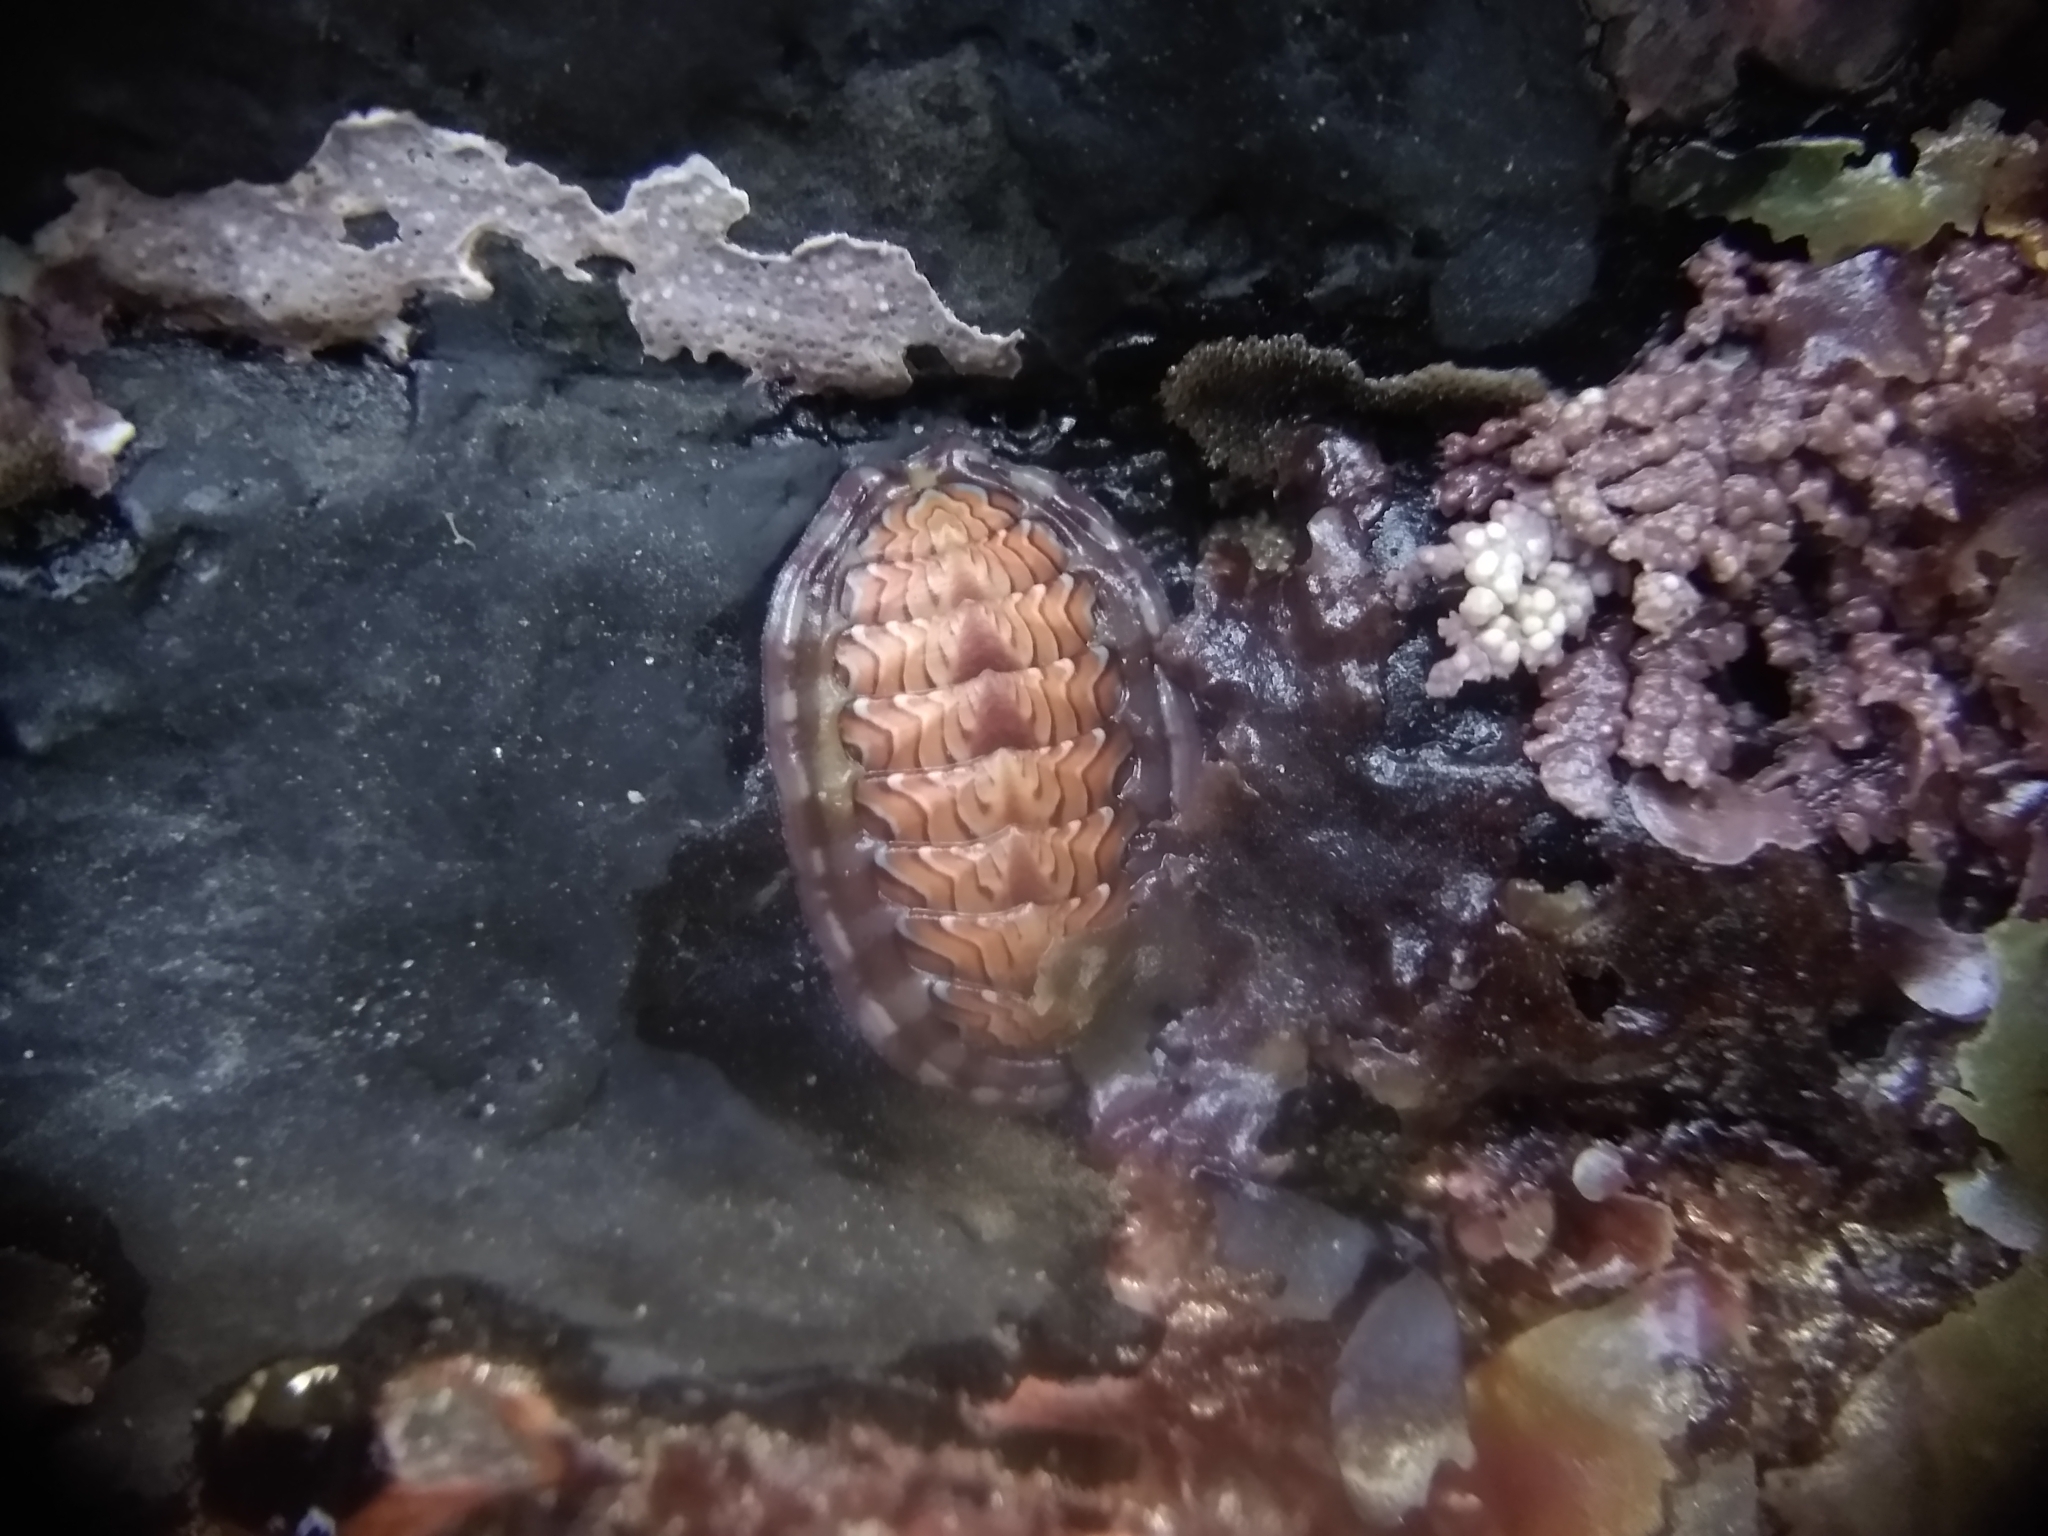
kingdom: Animalia
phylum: Mollusca
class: Polyplacophora
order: Chitonida
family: Tonicellidae
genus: Tonicella
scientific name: Tonicella lokii
